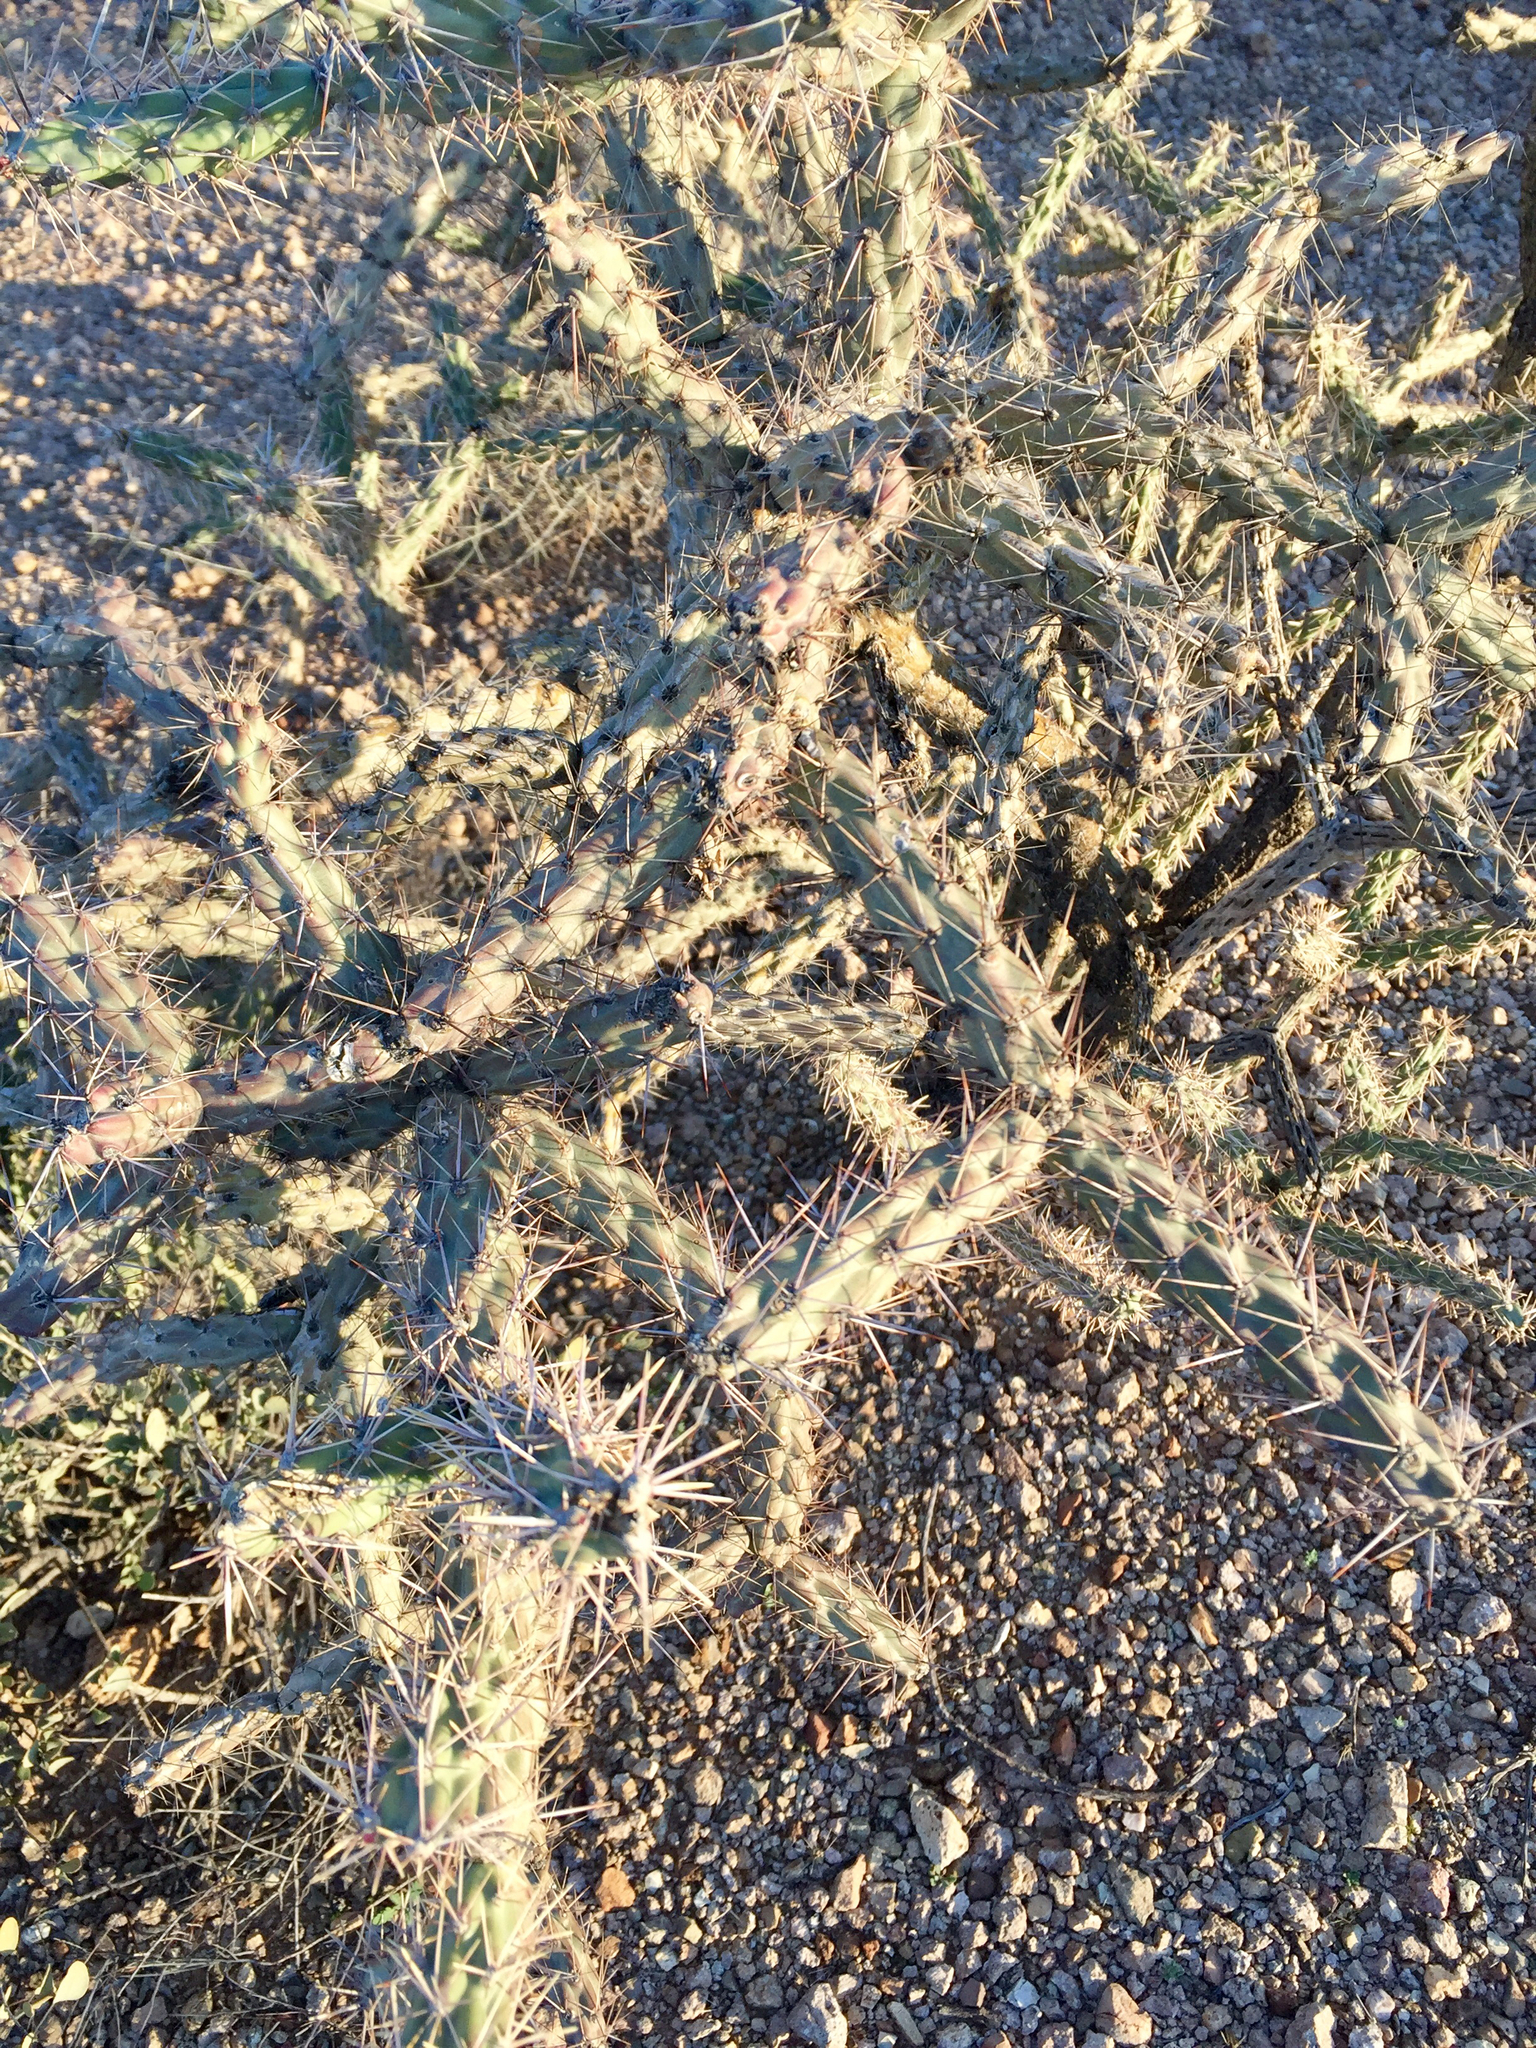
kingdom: Plantae
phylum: Tracheophyta
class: Magnoliopsida
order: Caryophyllales
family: Cactaceae
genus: Cylindropuntia
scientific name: Cylindropuntia acanthocarpa
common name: Buckhorn cholla
